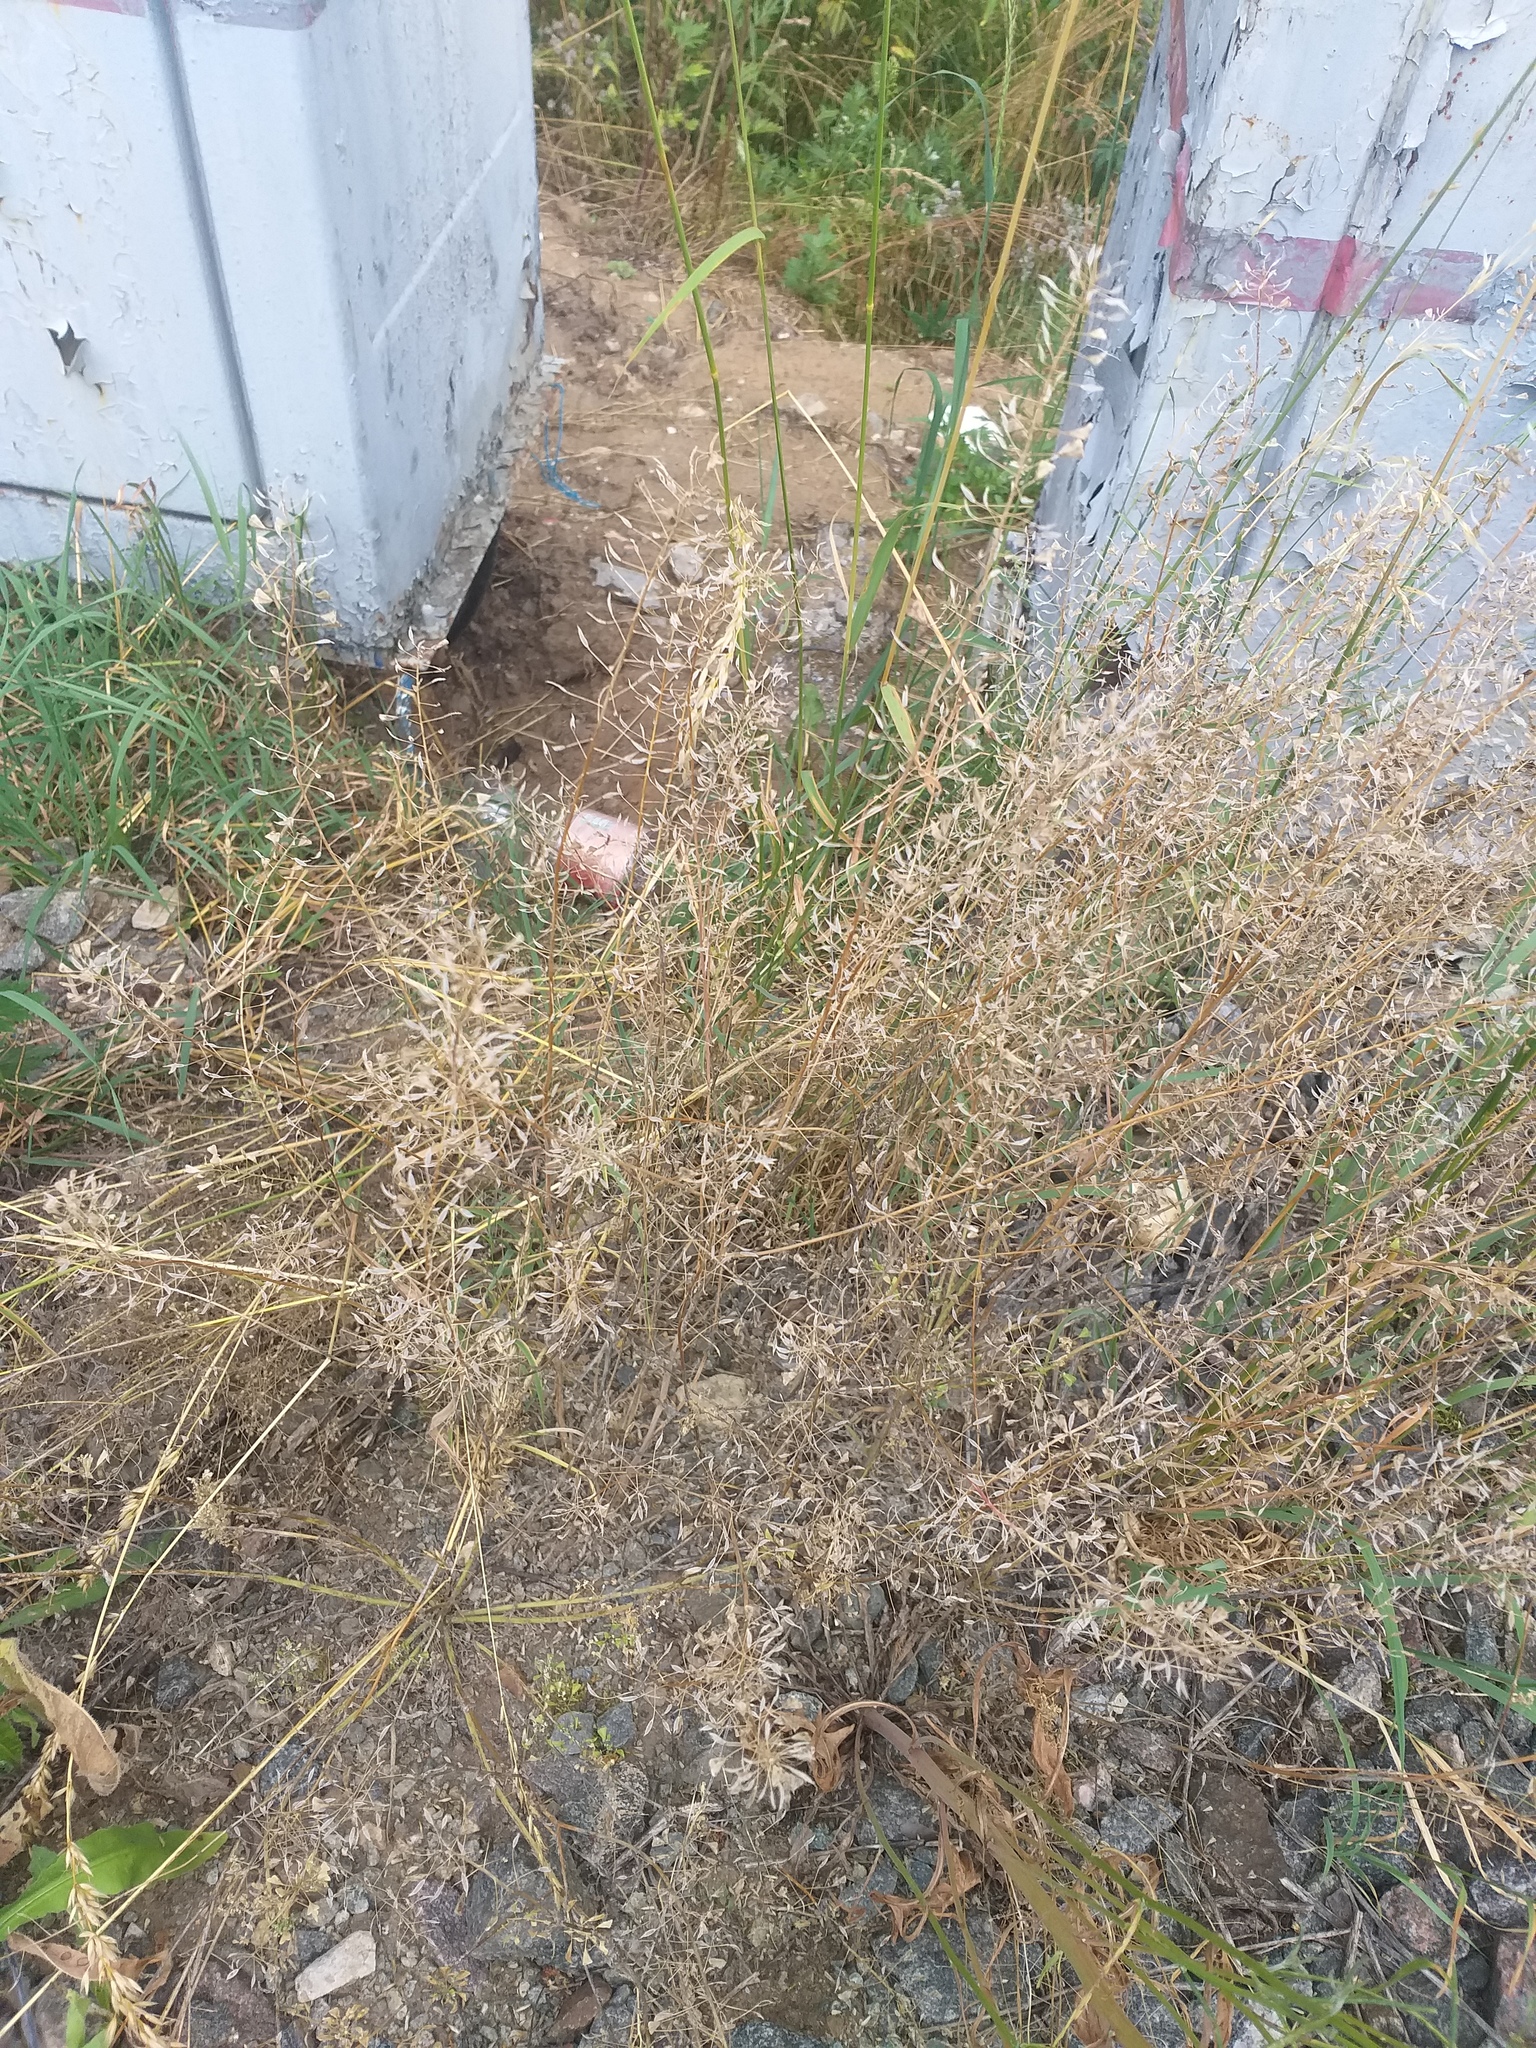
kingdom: Plantae
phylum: Tracheophyta
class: Magnoliopsida
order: Brassicales
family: Brassicaceae
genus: Capsella
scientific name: Capsella bursa-pastoris
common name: Shepherd's purse
